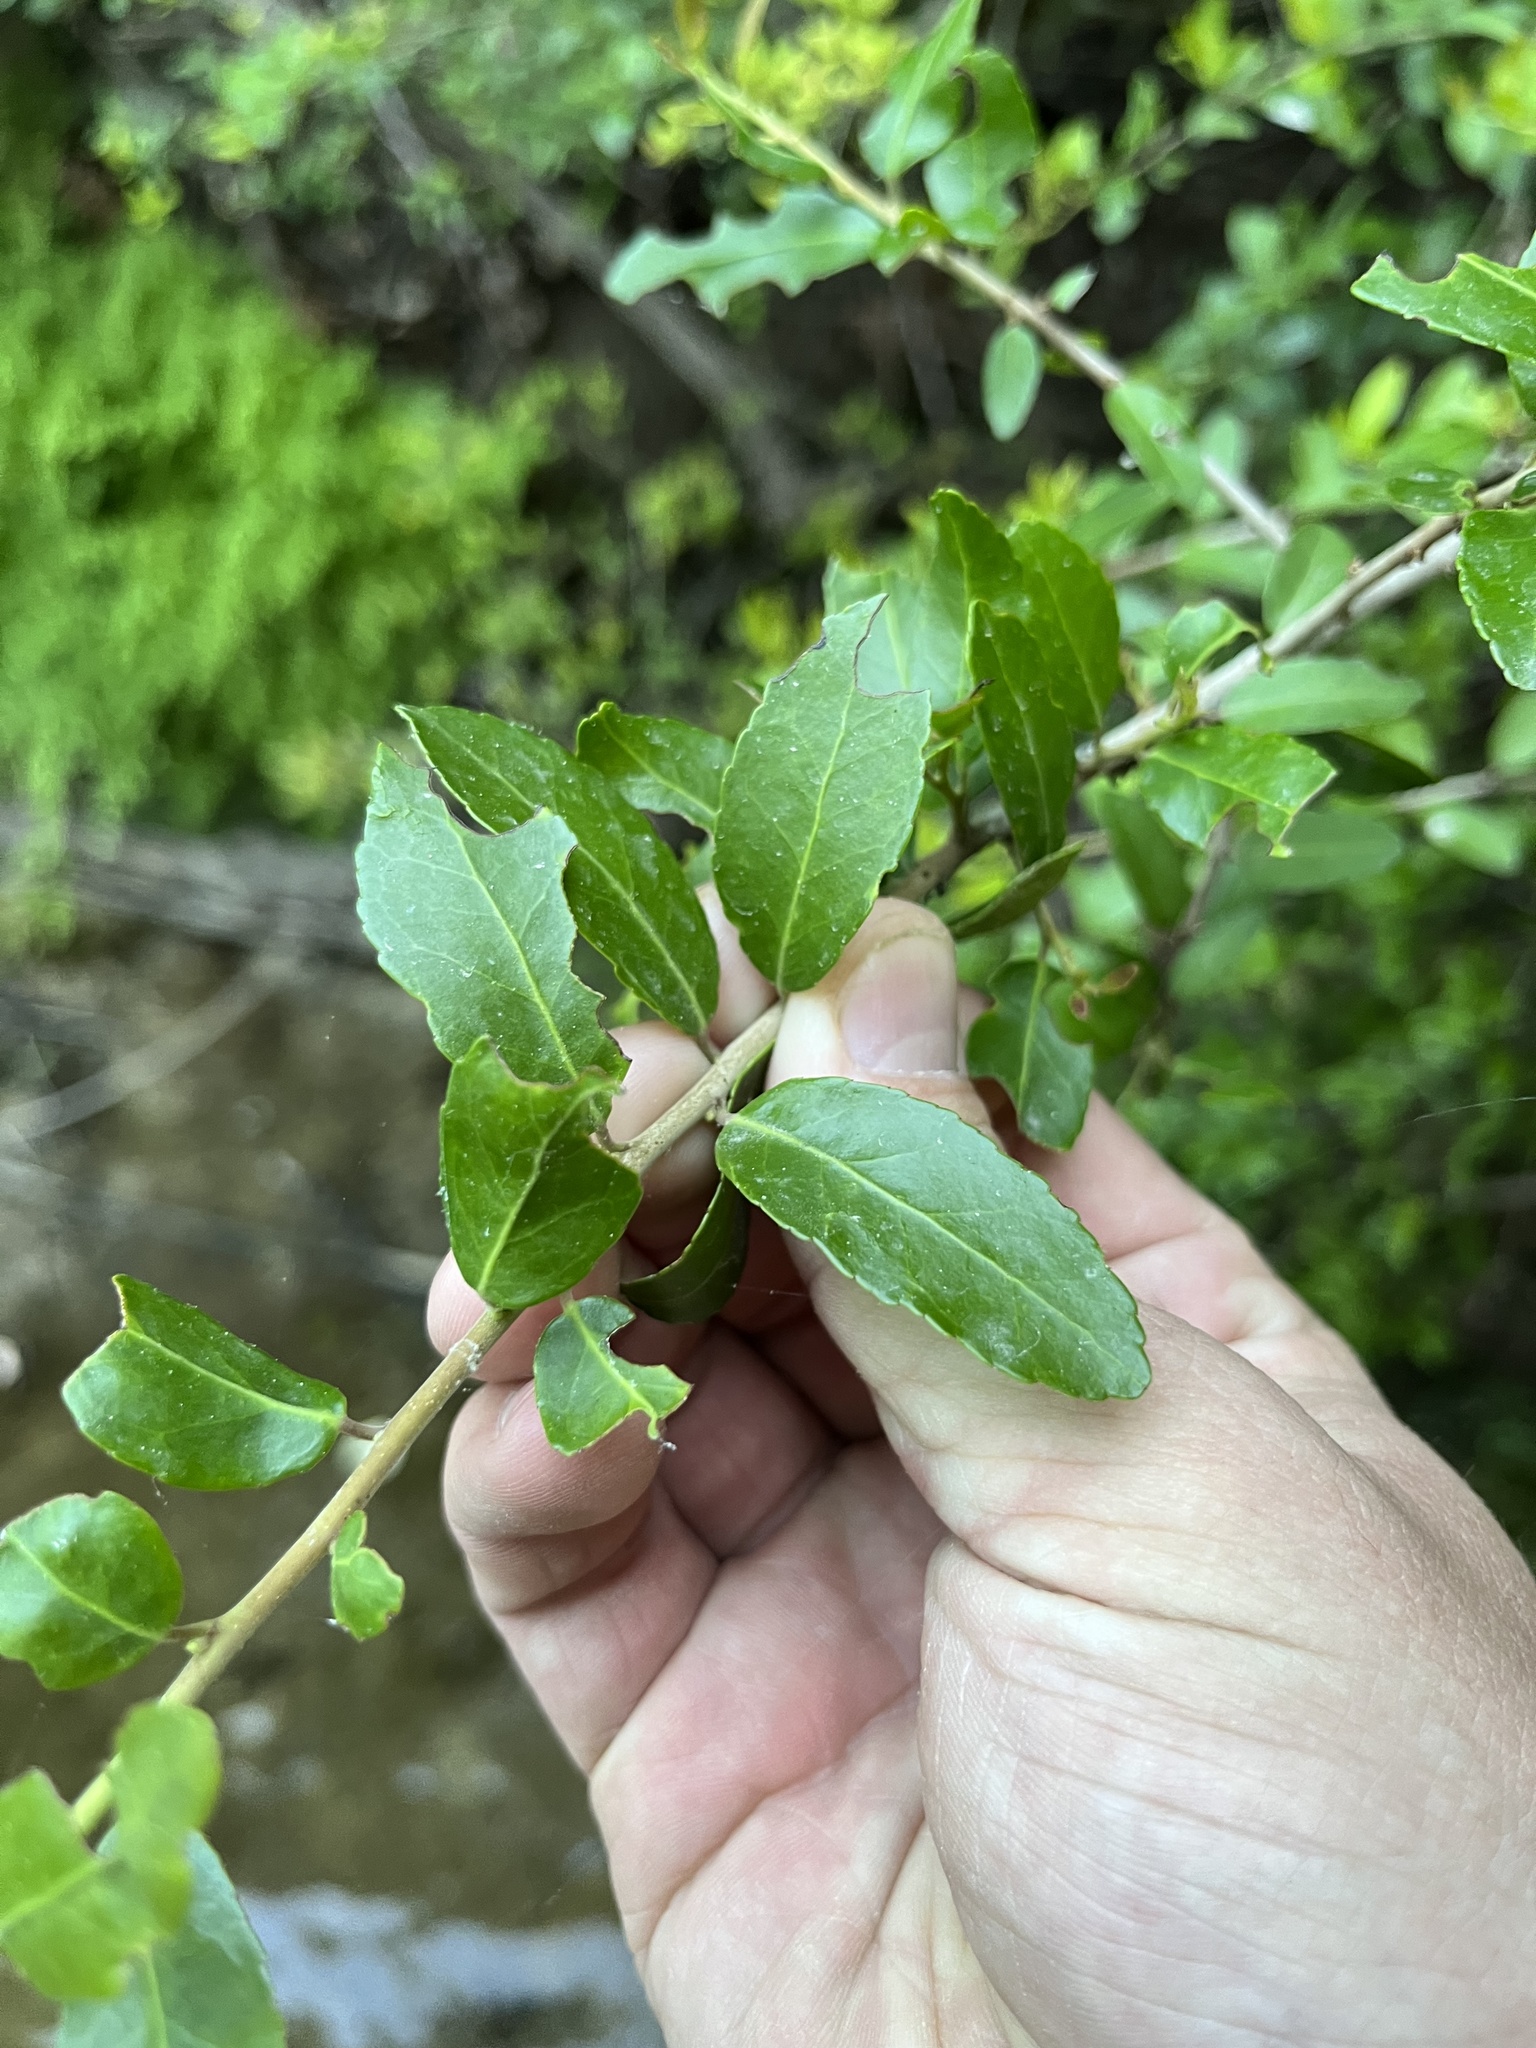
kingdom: Plantae
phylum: Tracheophyta
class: Magnoliopsida
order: Aquifoliales
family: Aquifoliaceae
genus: Ilex
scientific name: Ilex vomitoria
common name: Yaupon holly
